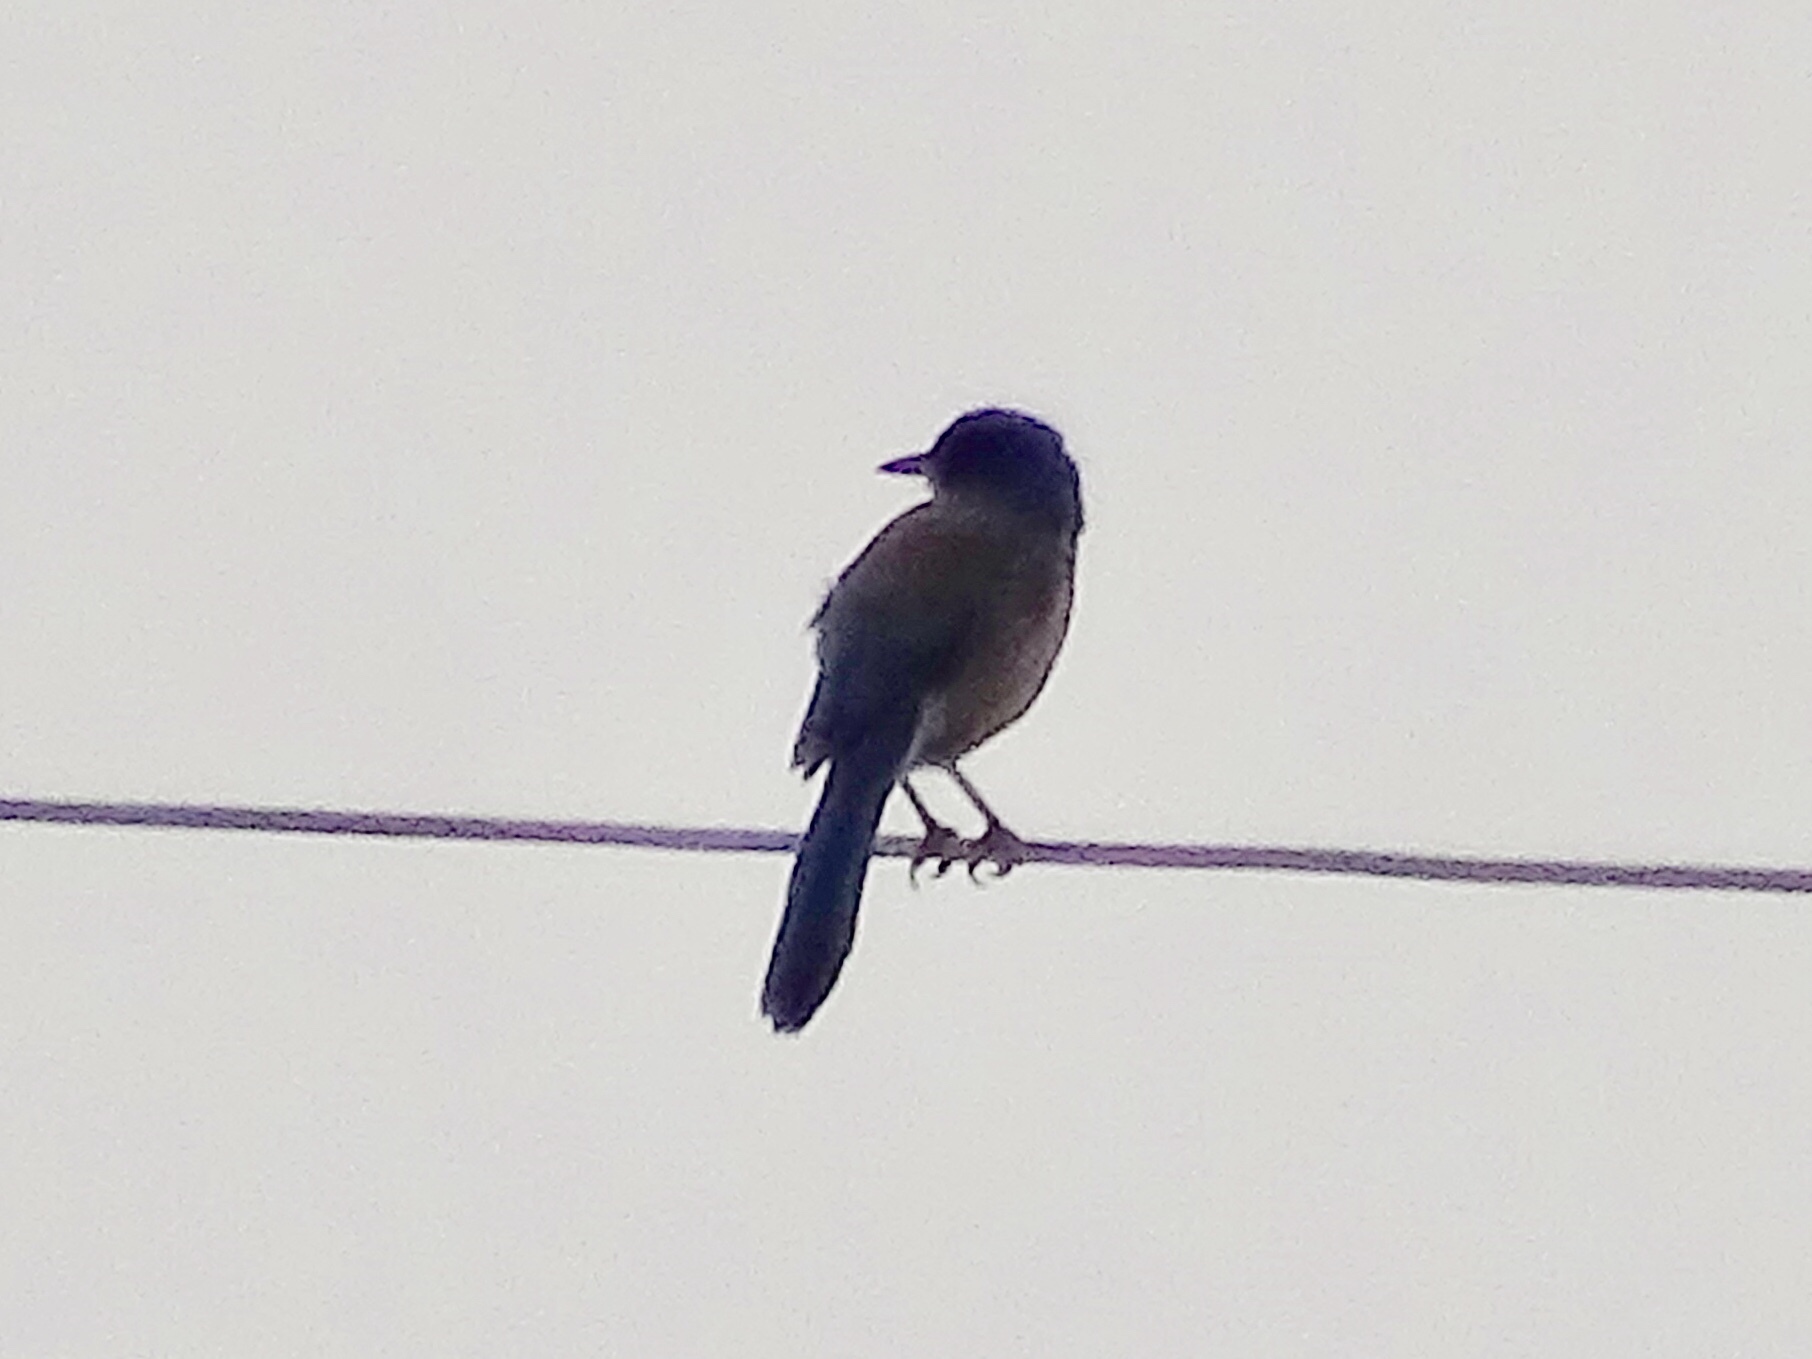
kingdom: Animalia
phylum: Chordata
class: Aves
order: Passeriformes
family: Corvidae
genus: Aphelocoma
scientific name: Aphelocoma woodhouseii
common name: Woodhouse's scrub-jay
